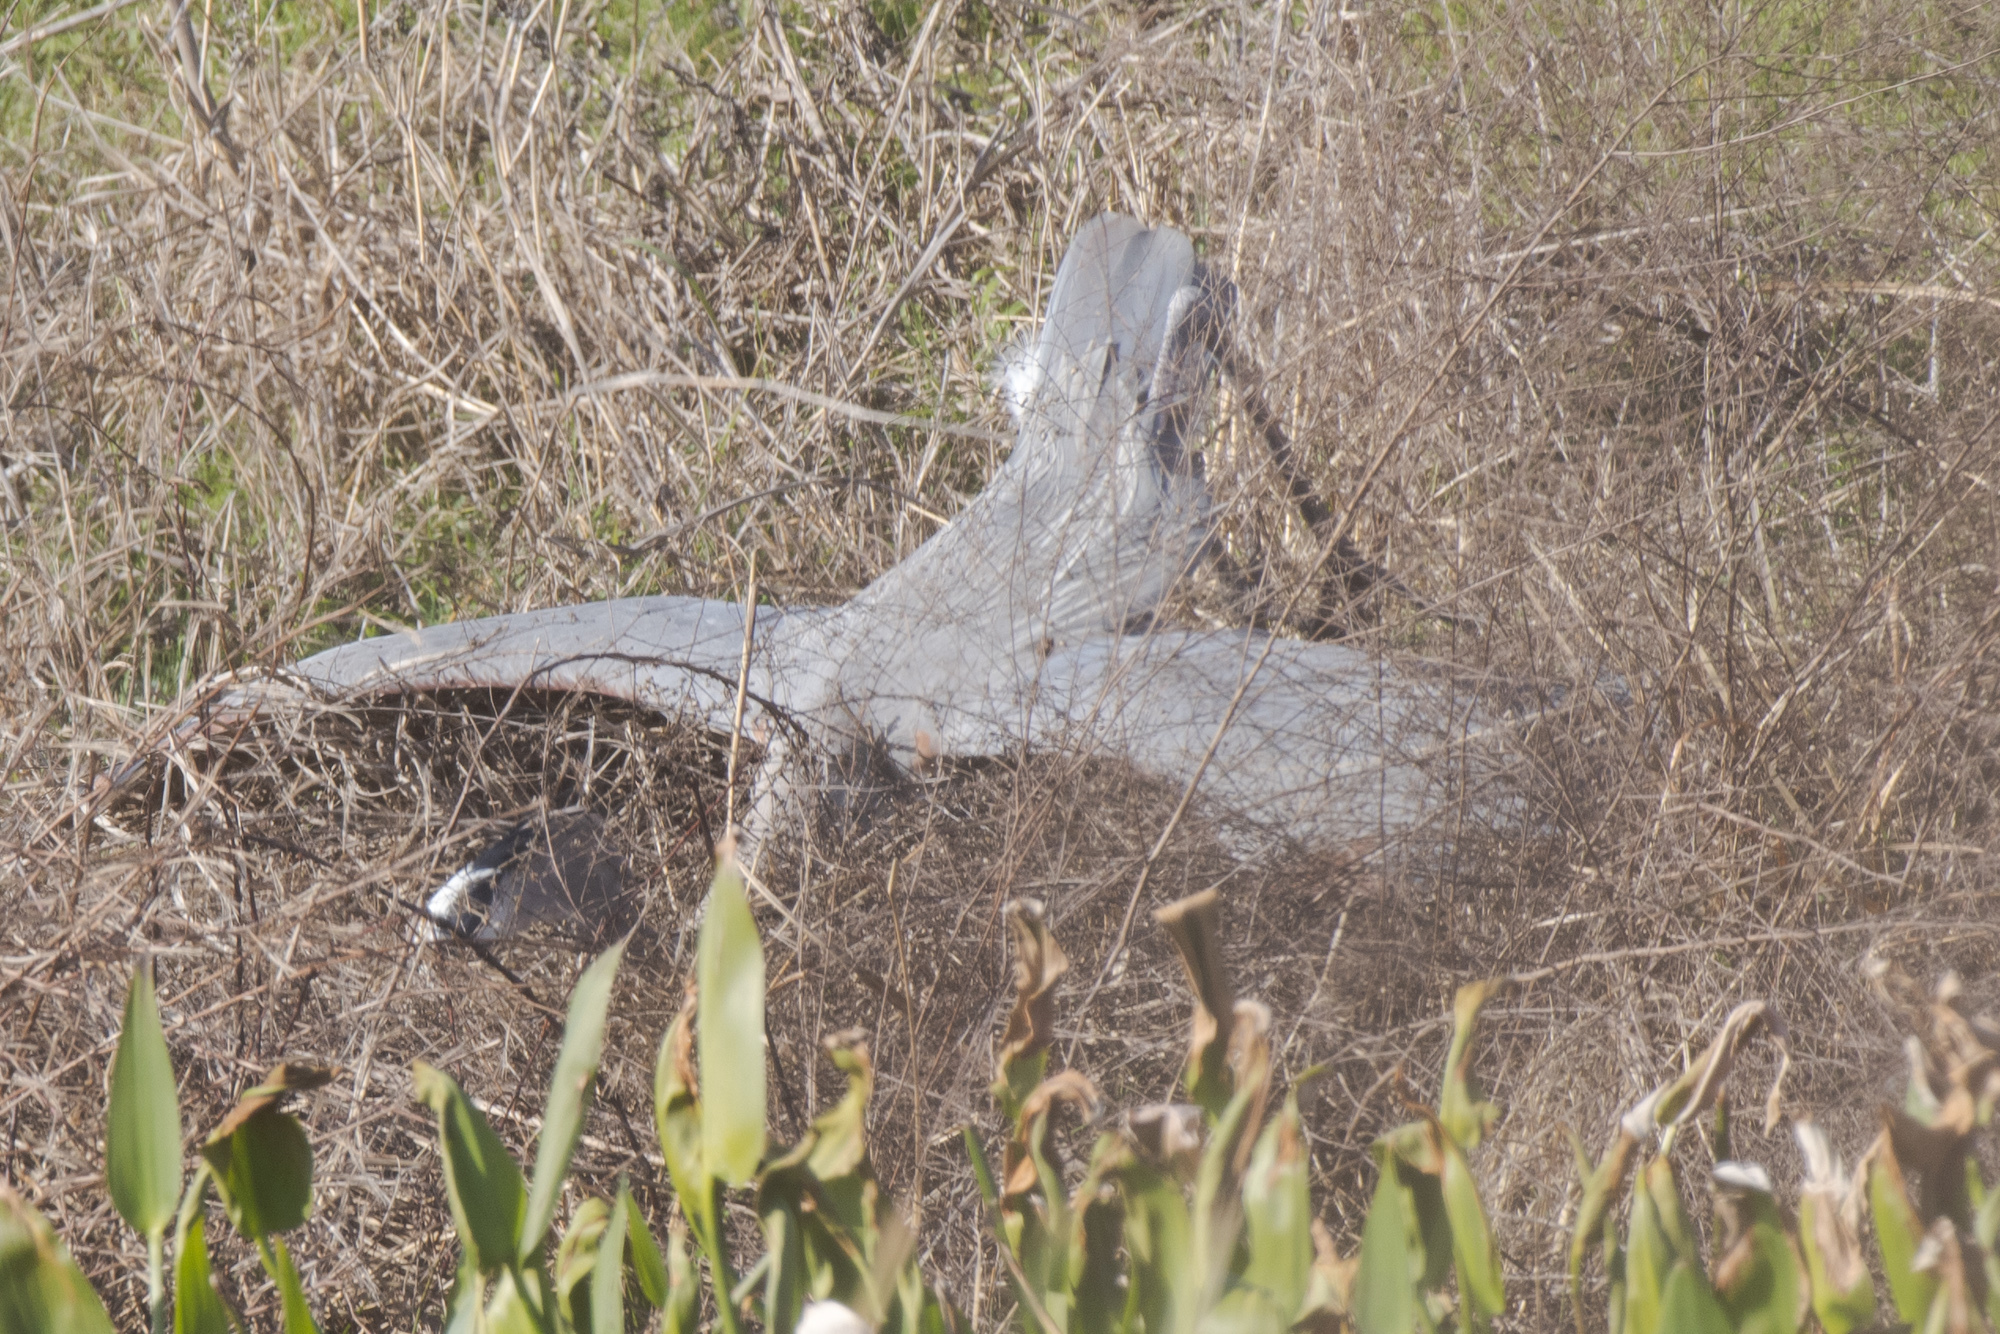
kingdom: Animalia
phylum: Chordata
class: Aves
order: Pelecaniformes
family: Ardeidae
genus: Ardea
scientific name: Ardea herodias
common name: Great blue heron
